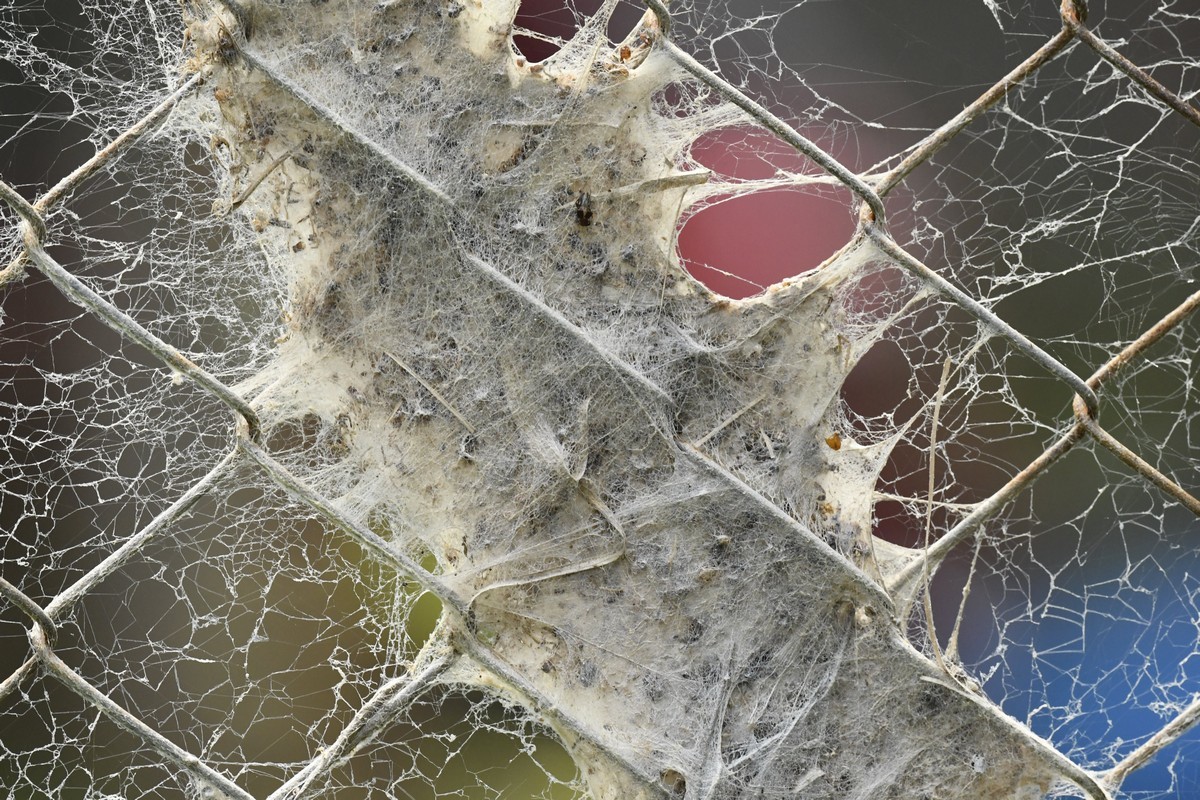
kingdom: Animalia
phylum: Arthropoda
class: Arachnida
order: Araneae
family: Eresidae
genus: Stegodyphus
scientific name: Stegodyphus sarasinorum
